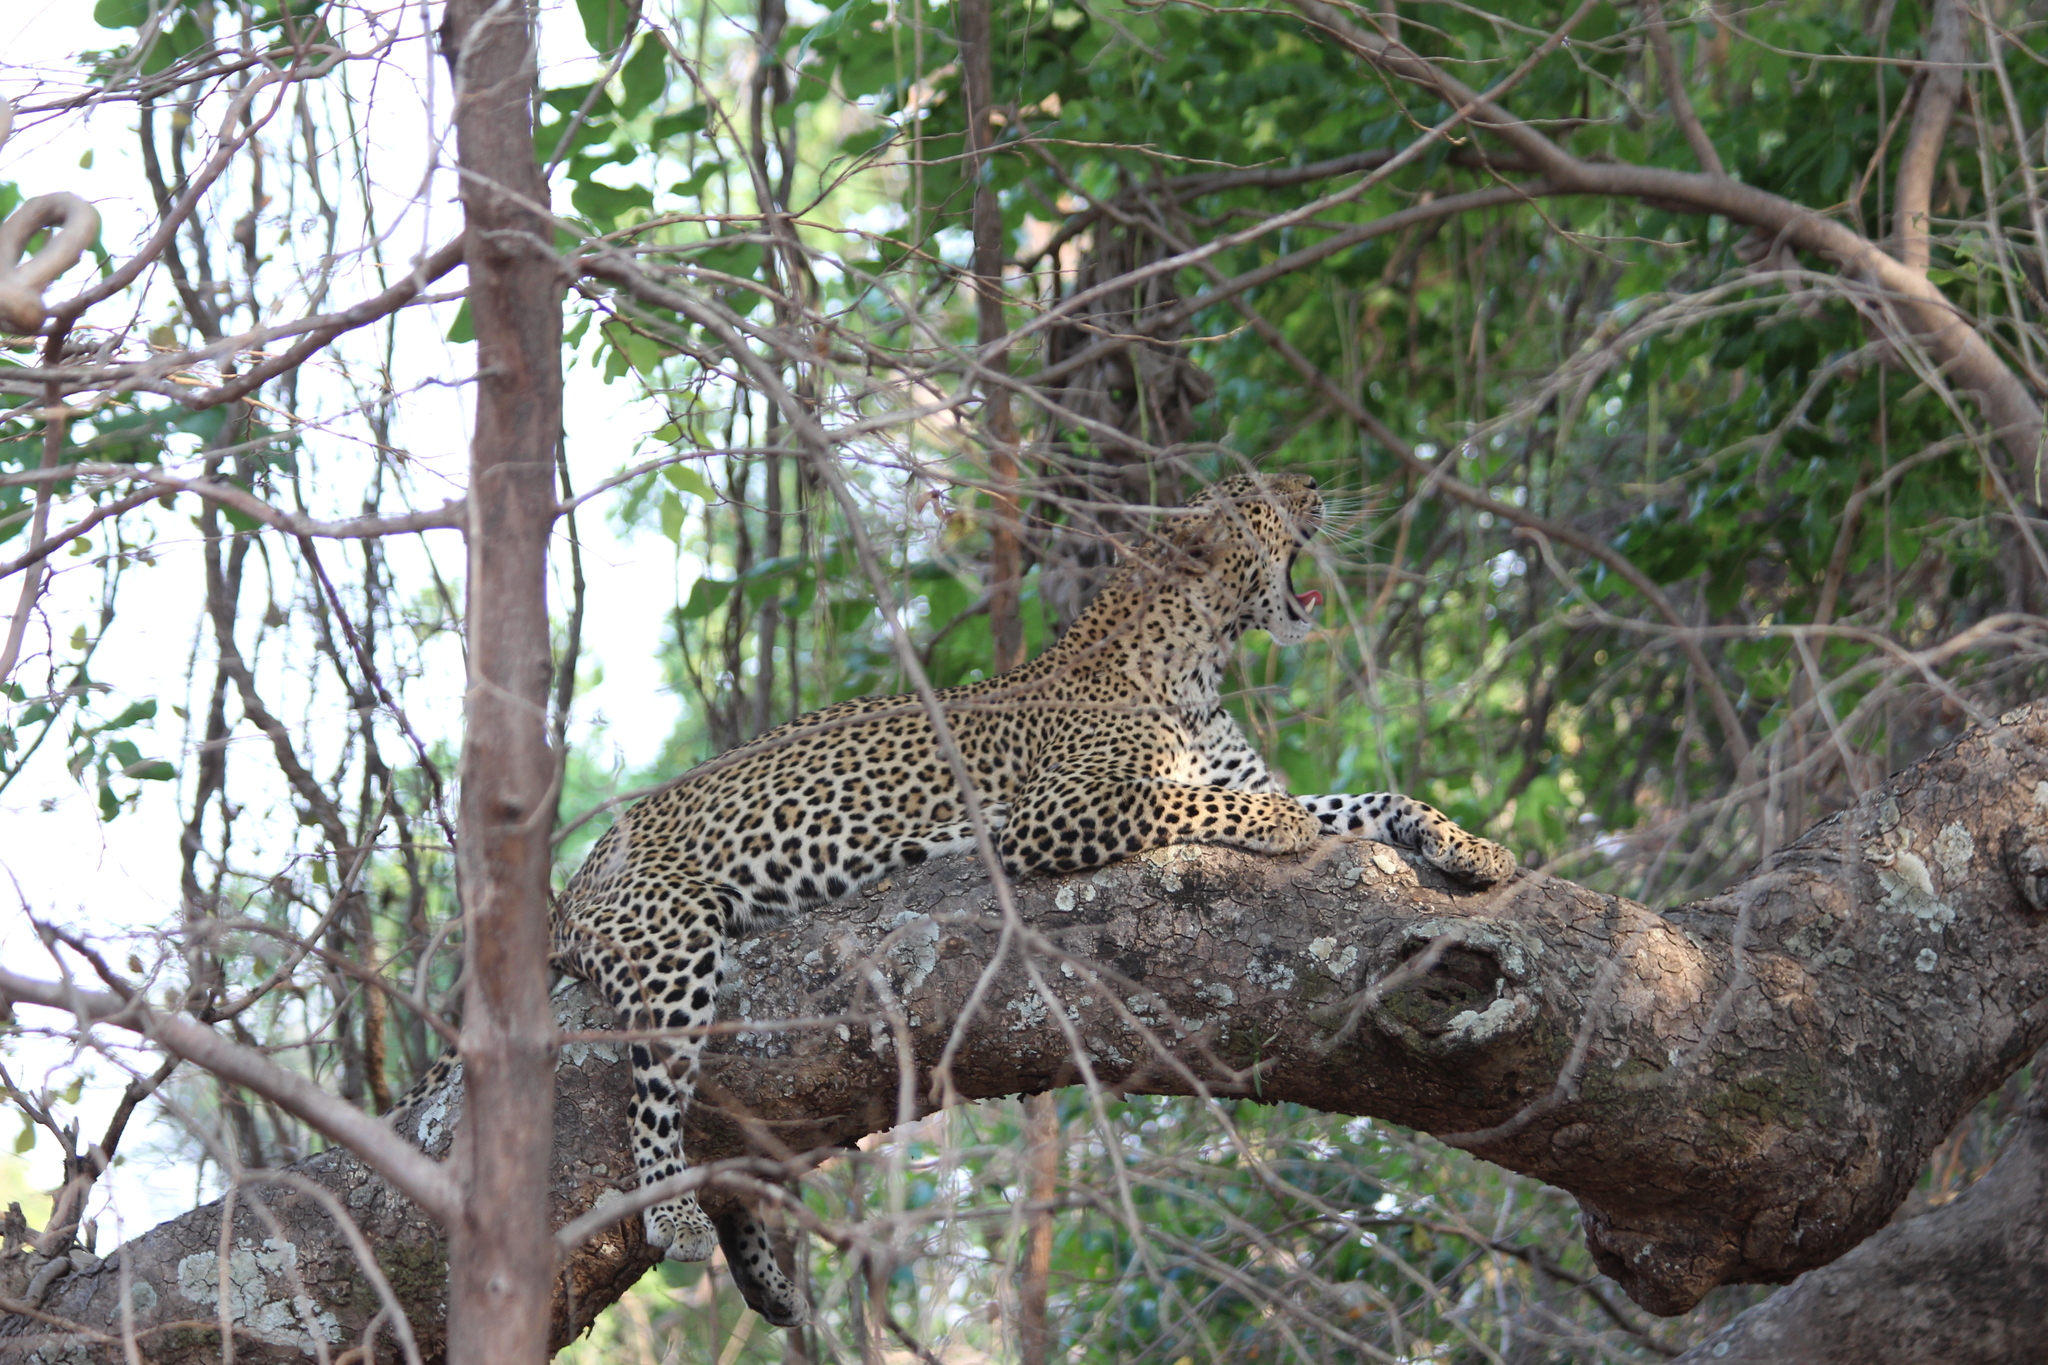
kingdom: Animalia
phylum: Chordata
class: Mammalia
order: Carnivora
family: Felidae
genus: Panthera
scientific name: Panthera pardus
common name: Leopard
